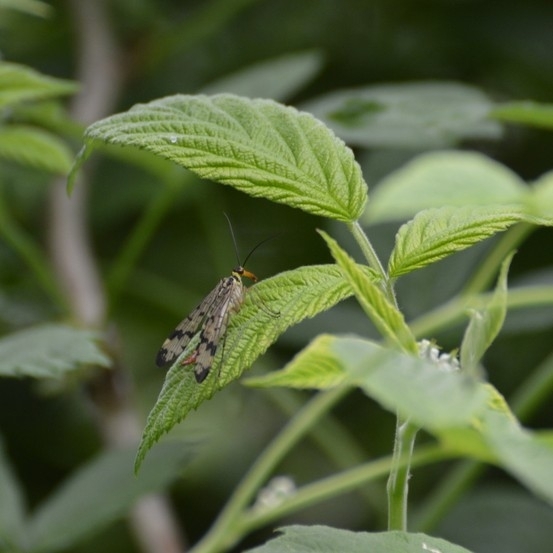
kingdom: Animalia
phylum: Arthropoda
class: Insecta
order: Mecoptera
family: Panorpidae
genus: Panorpa
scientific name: Panorpa
